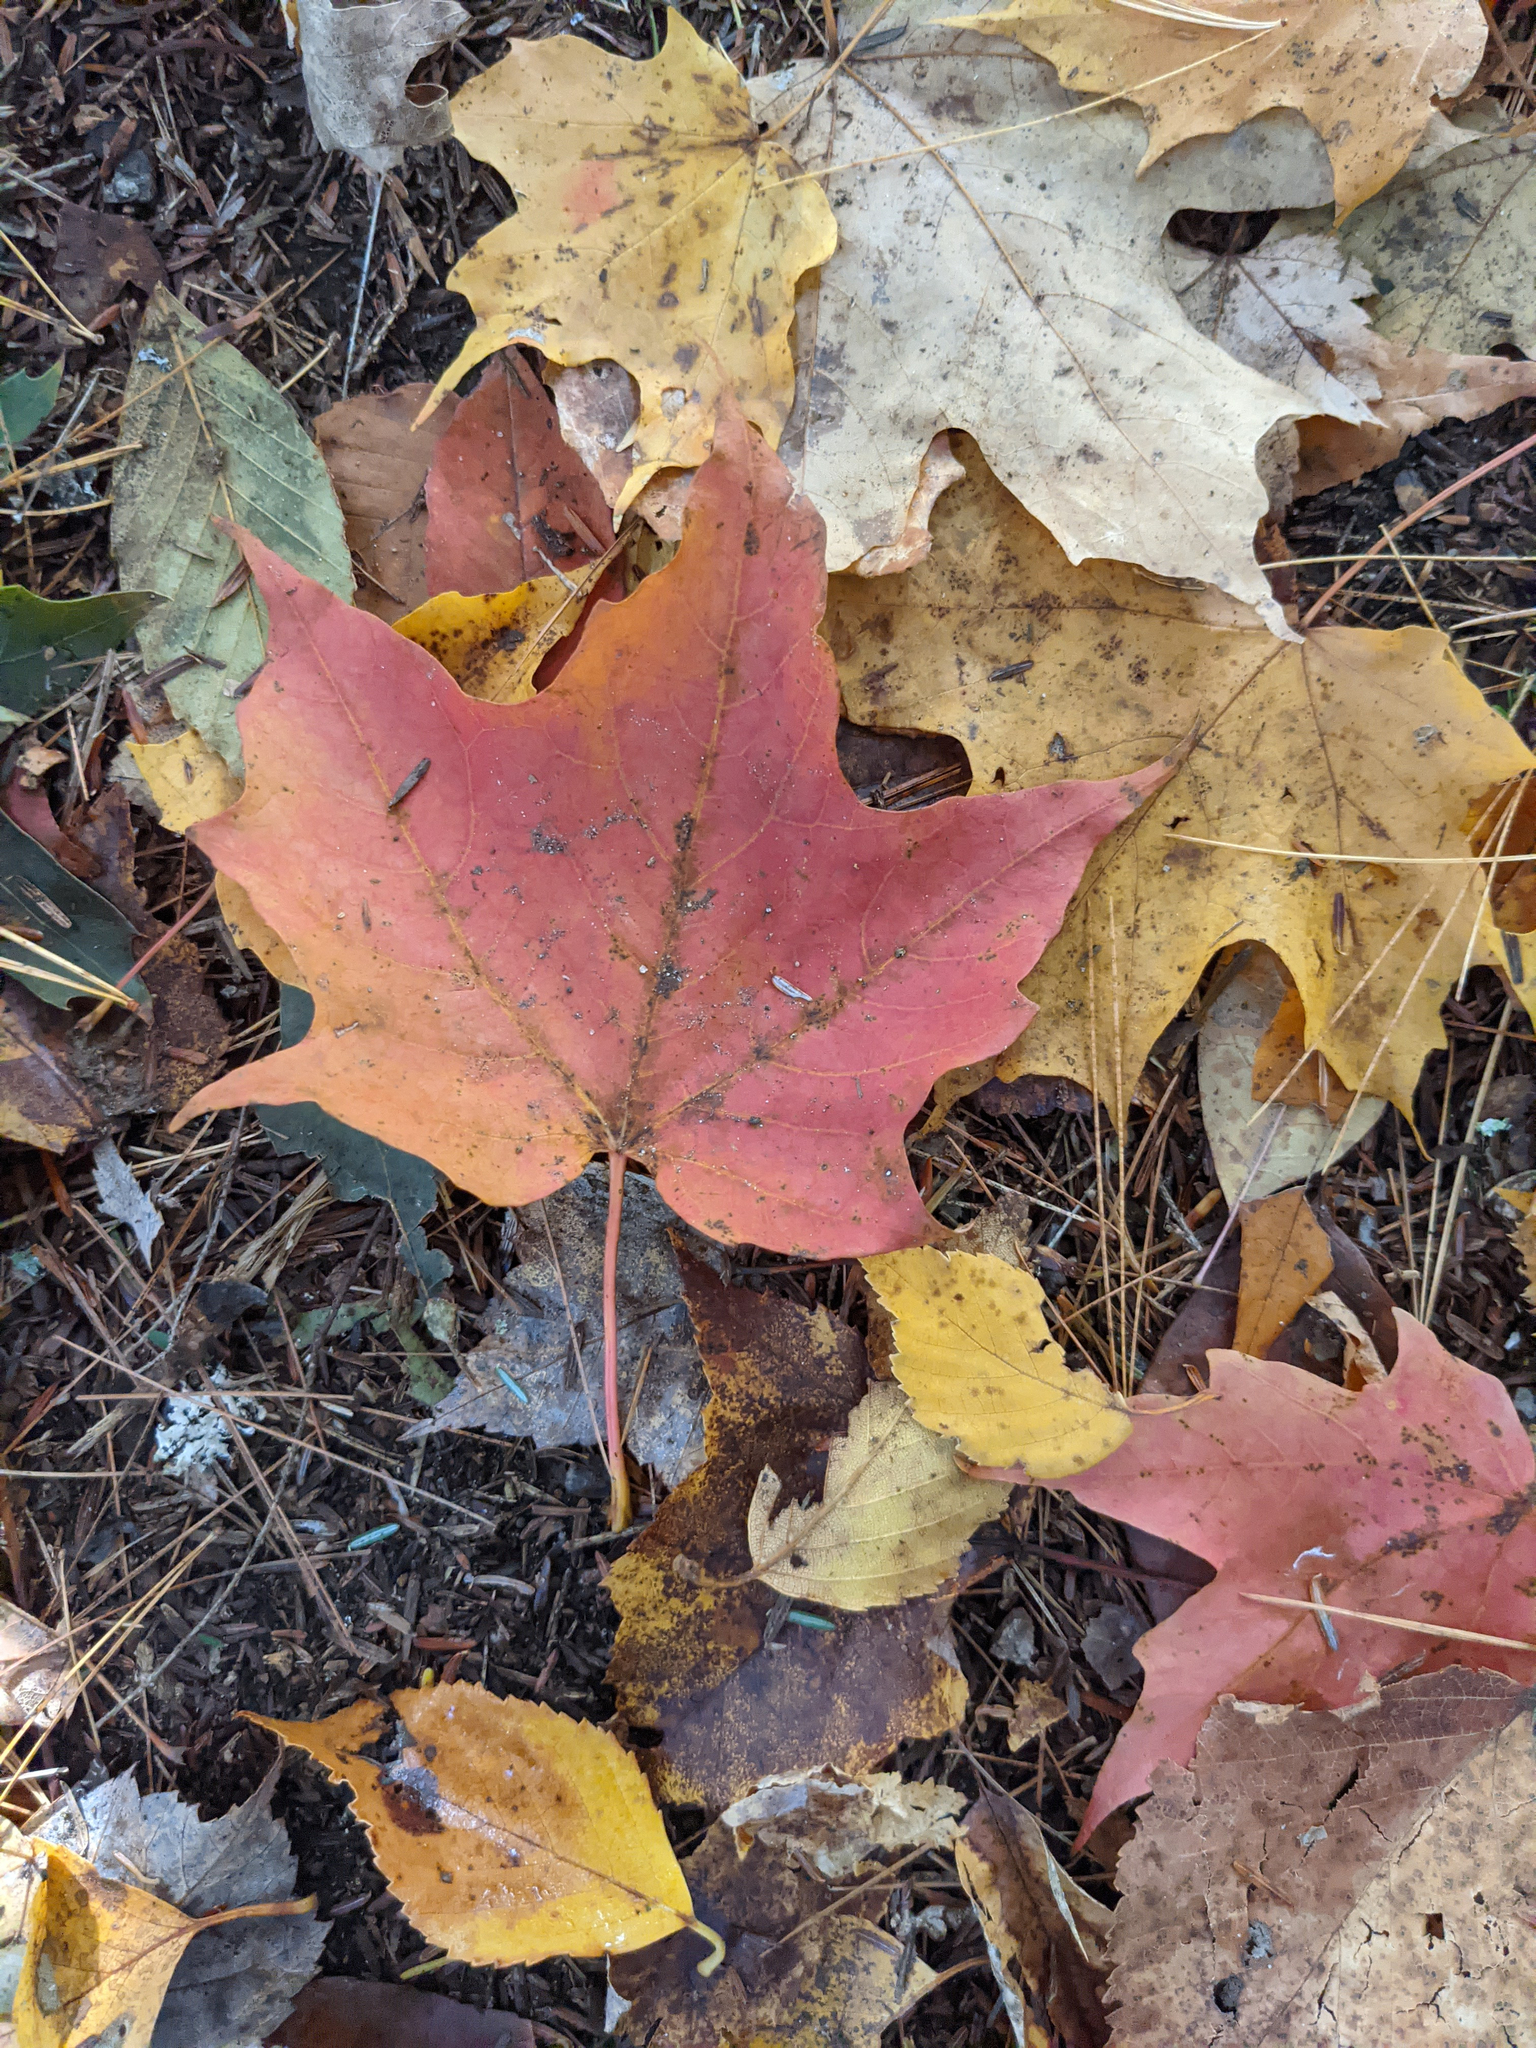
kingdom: Plantae
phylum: Tracheophyta
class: Magnoliopsida
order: Sapindales
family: Sapindaceae
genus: Acer
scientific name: Acer saccharum
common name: Sugar maple
